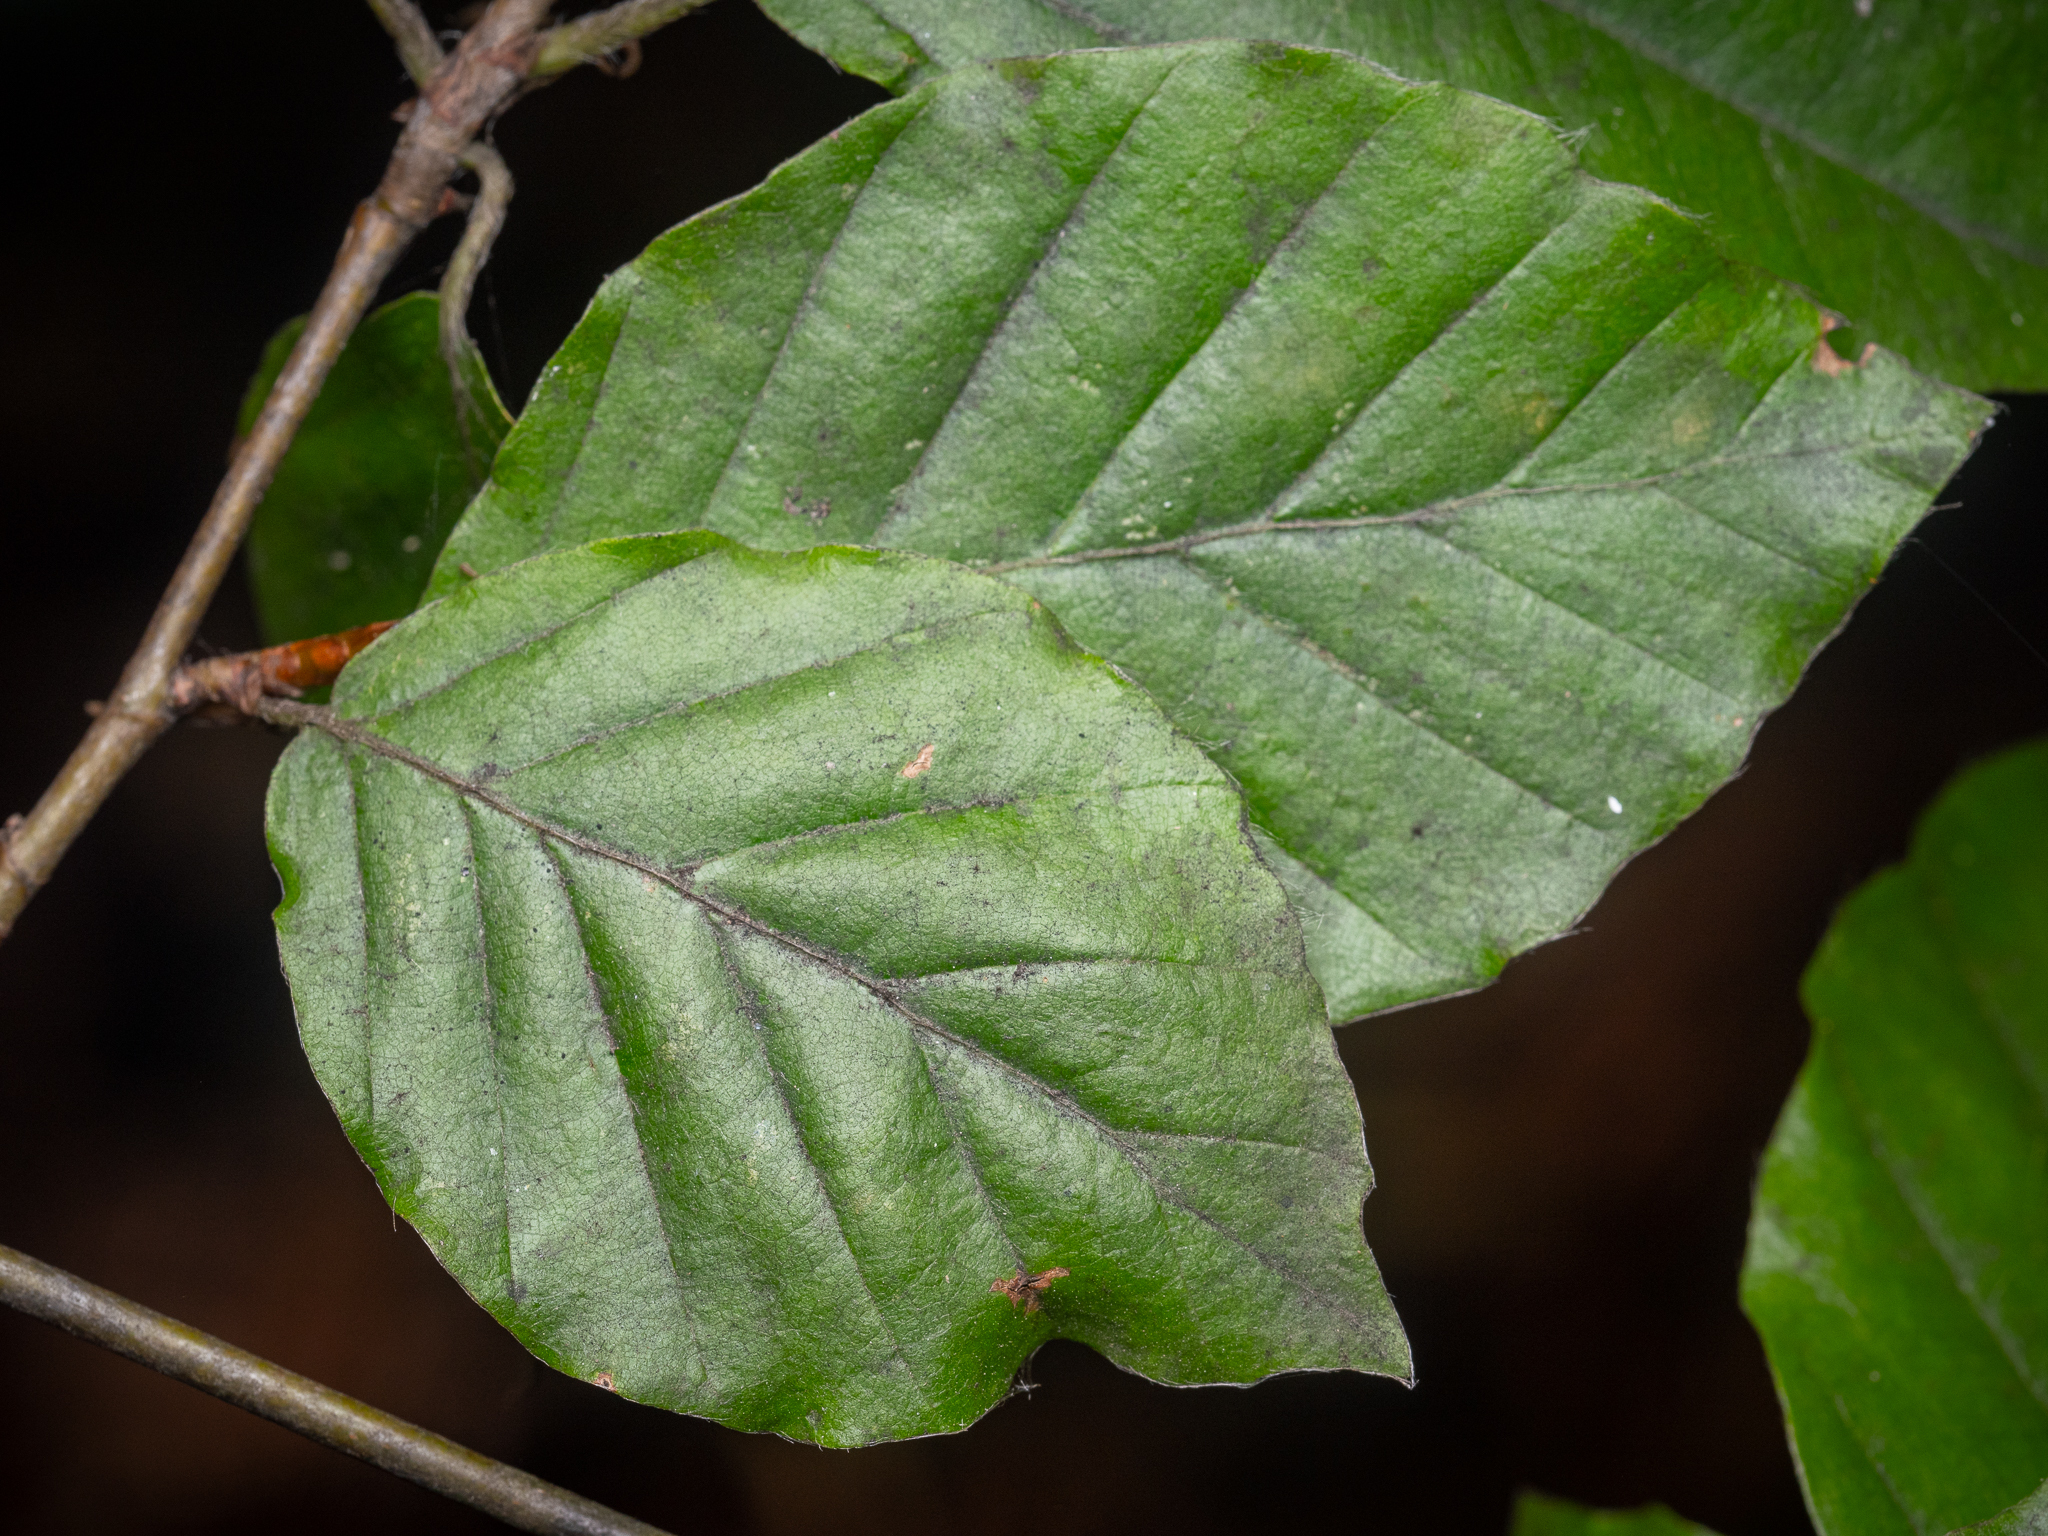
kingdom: Plantae
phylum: Tracheophyta
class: Magnoliopsida
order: Fagales
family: Fagaceae
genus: Fagus
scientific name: Fagus sylvatica
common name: Beech
